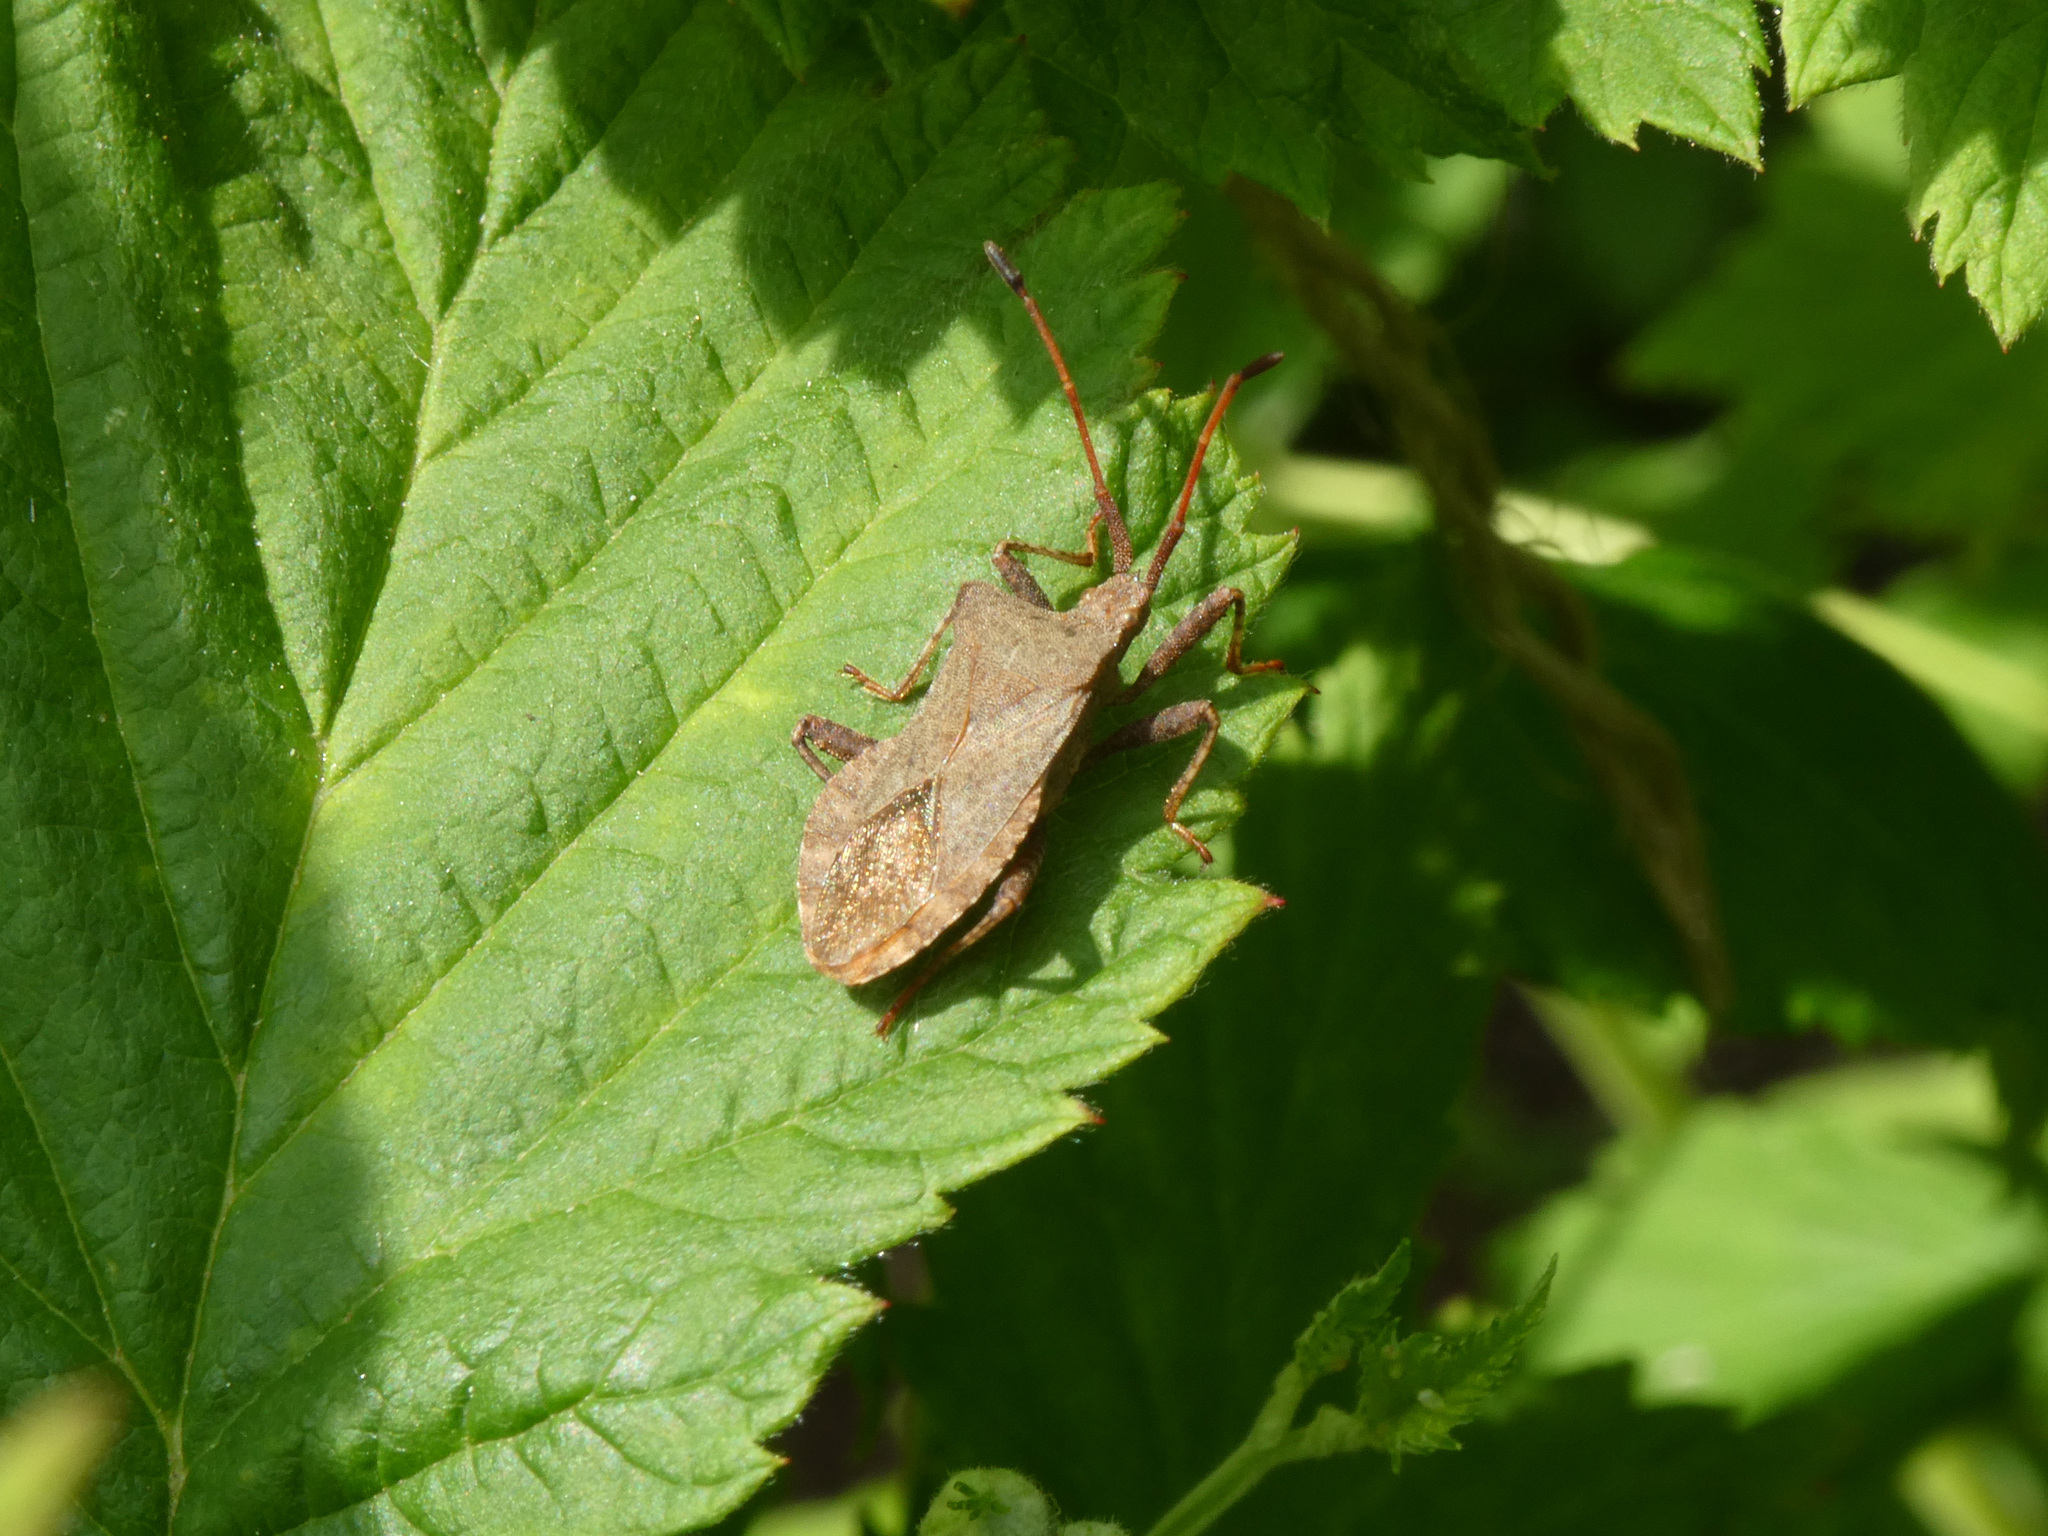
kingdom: Animalia
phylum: Arthropoda
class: Insecta
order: Hemiptera
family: Coreidae
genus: Coreus
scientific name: Coreus marginatus
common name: Dock bug
